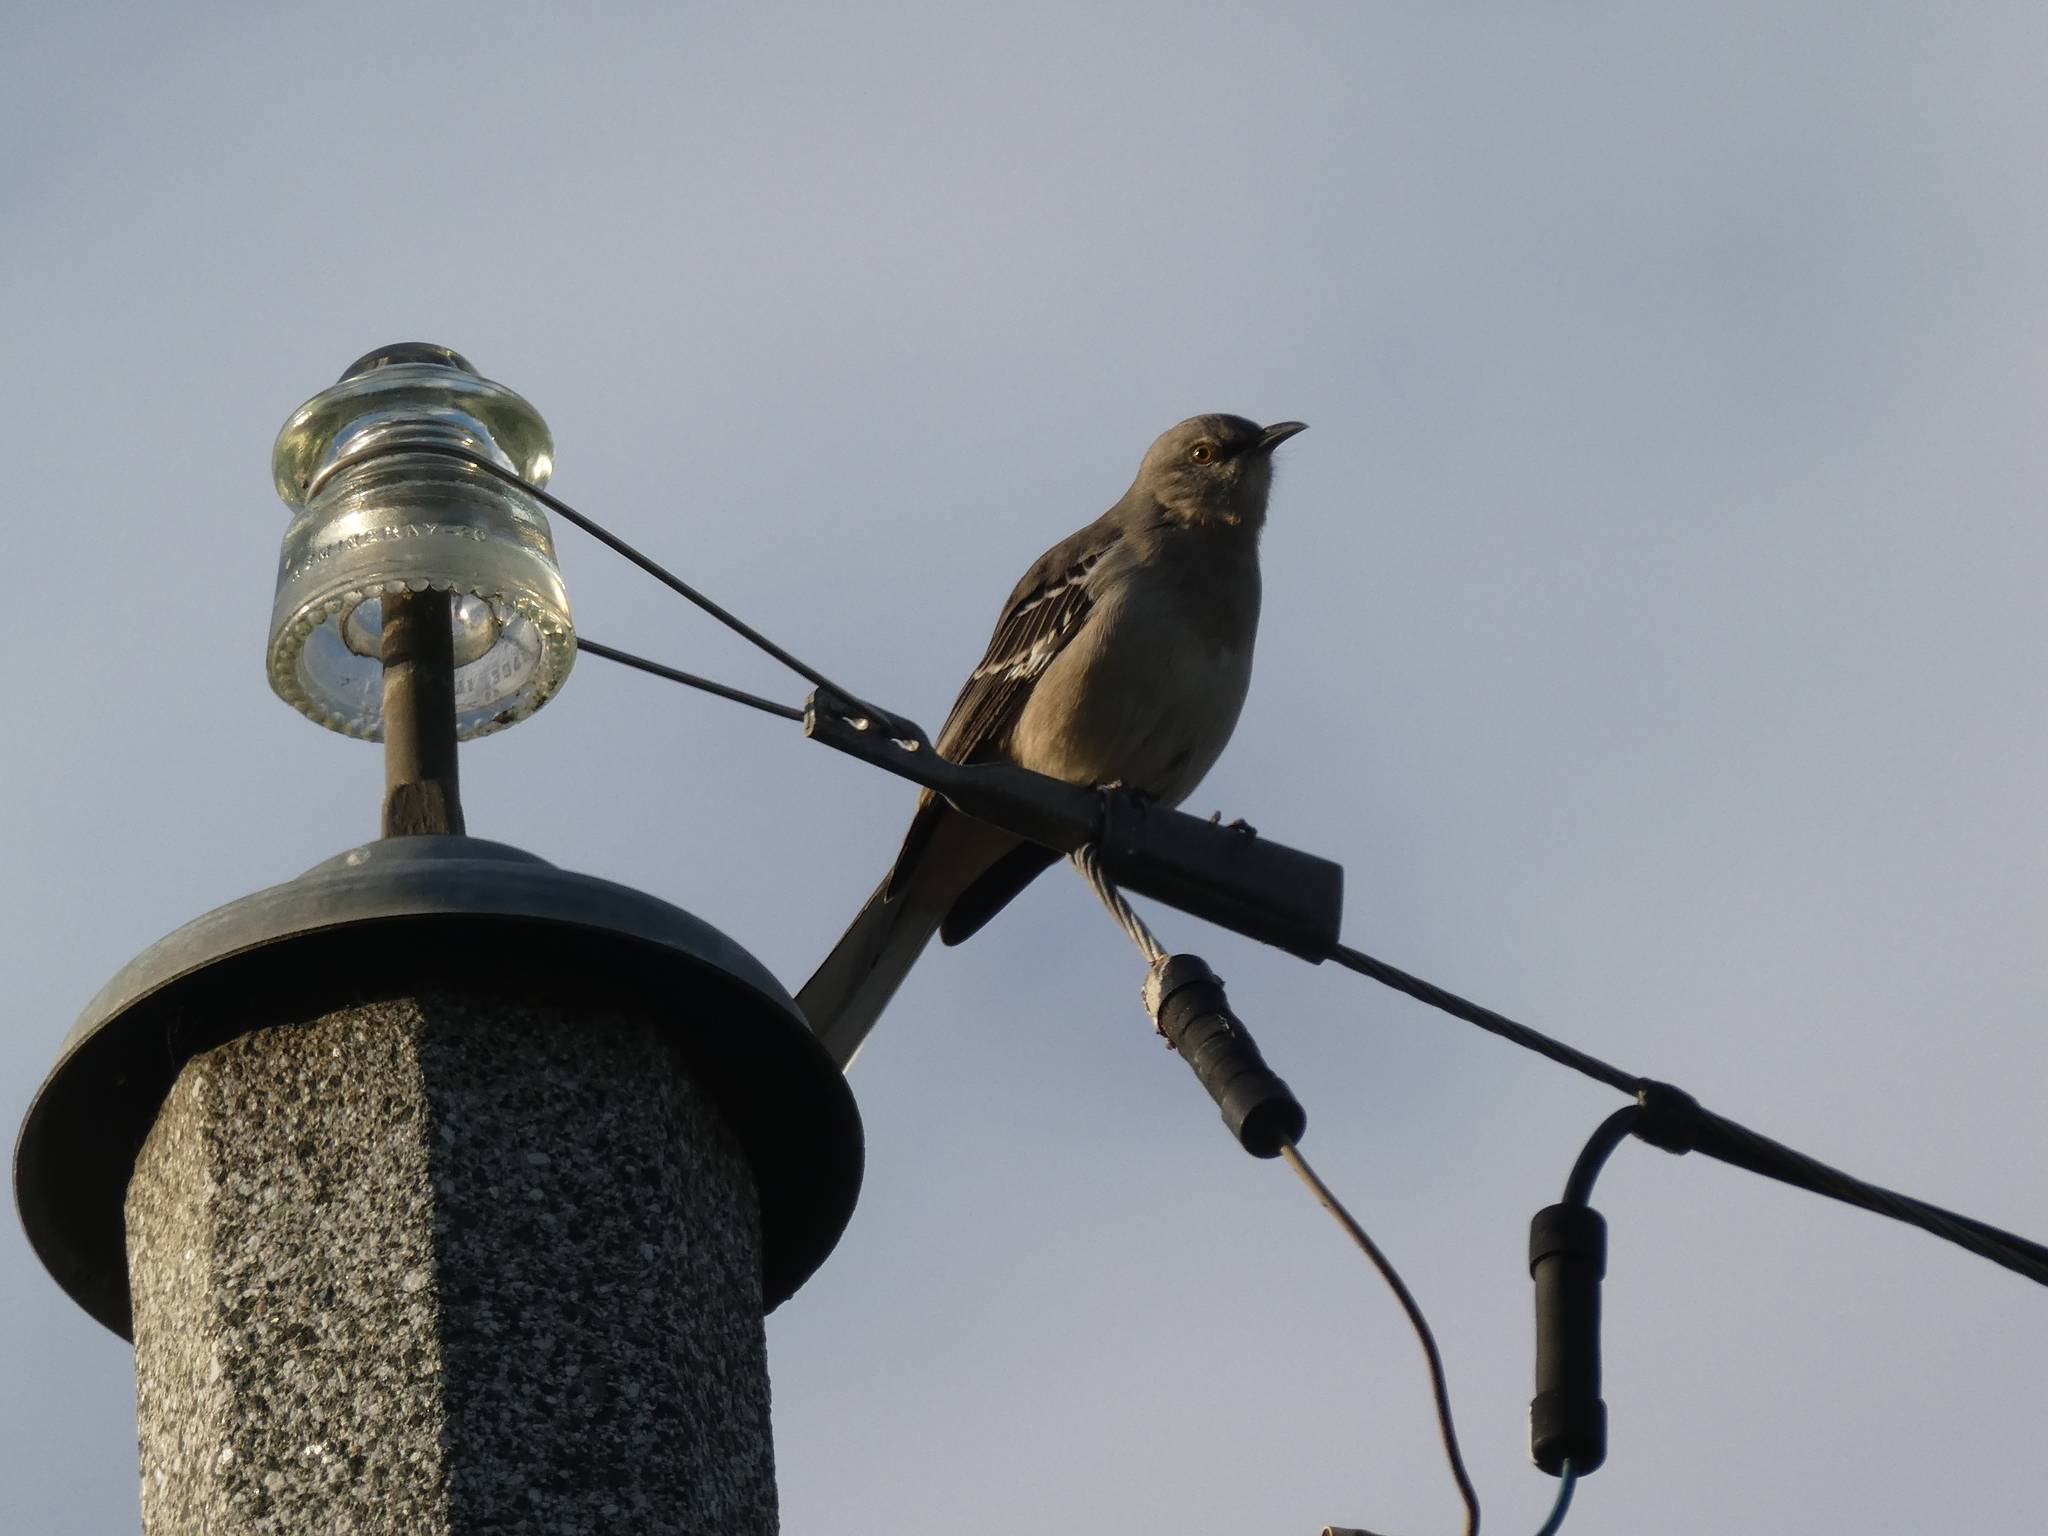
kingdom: Animalia
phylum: Chordata
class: Aves
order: Passeriformes
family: Mimidae
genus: Mimus
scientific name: Mimus polyglottos
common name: Northern mockingbird
